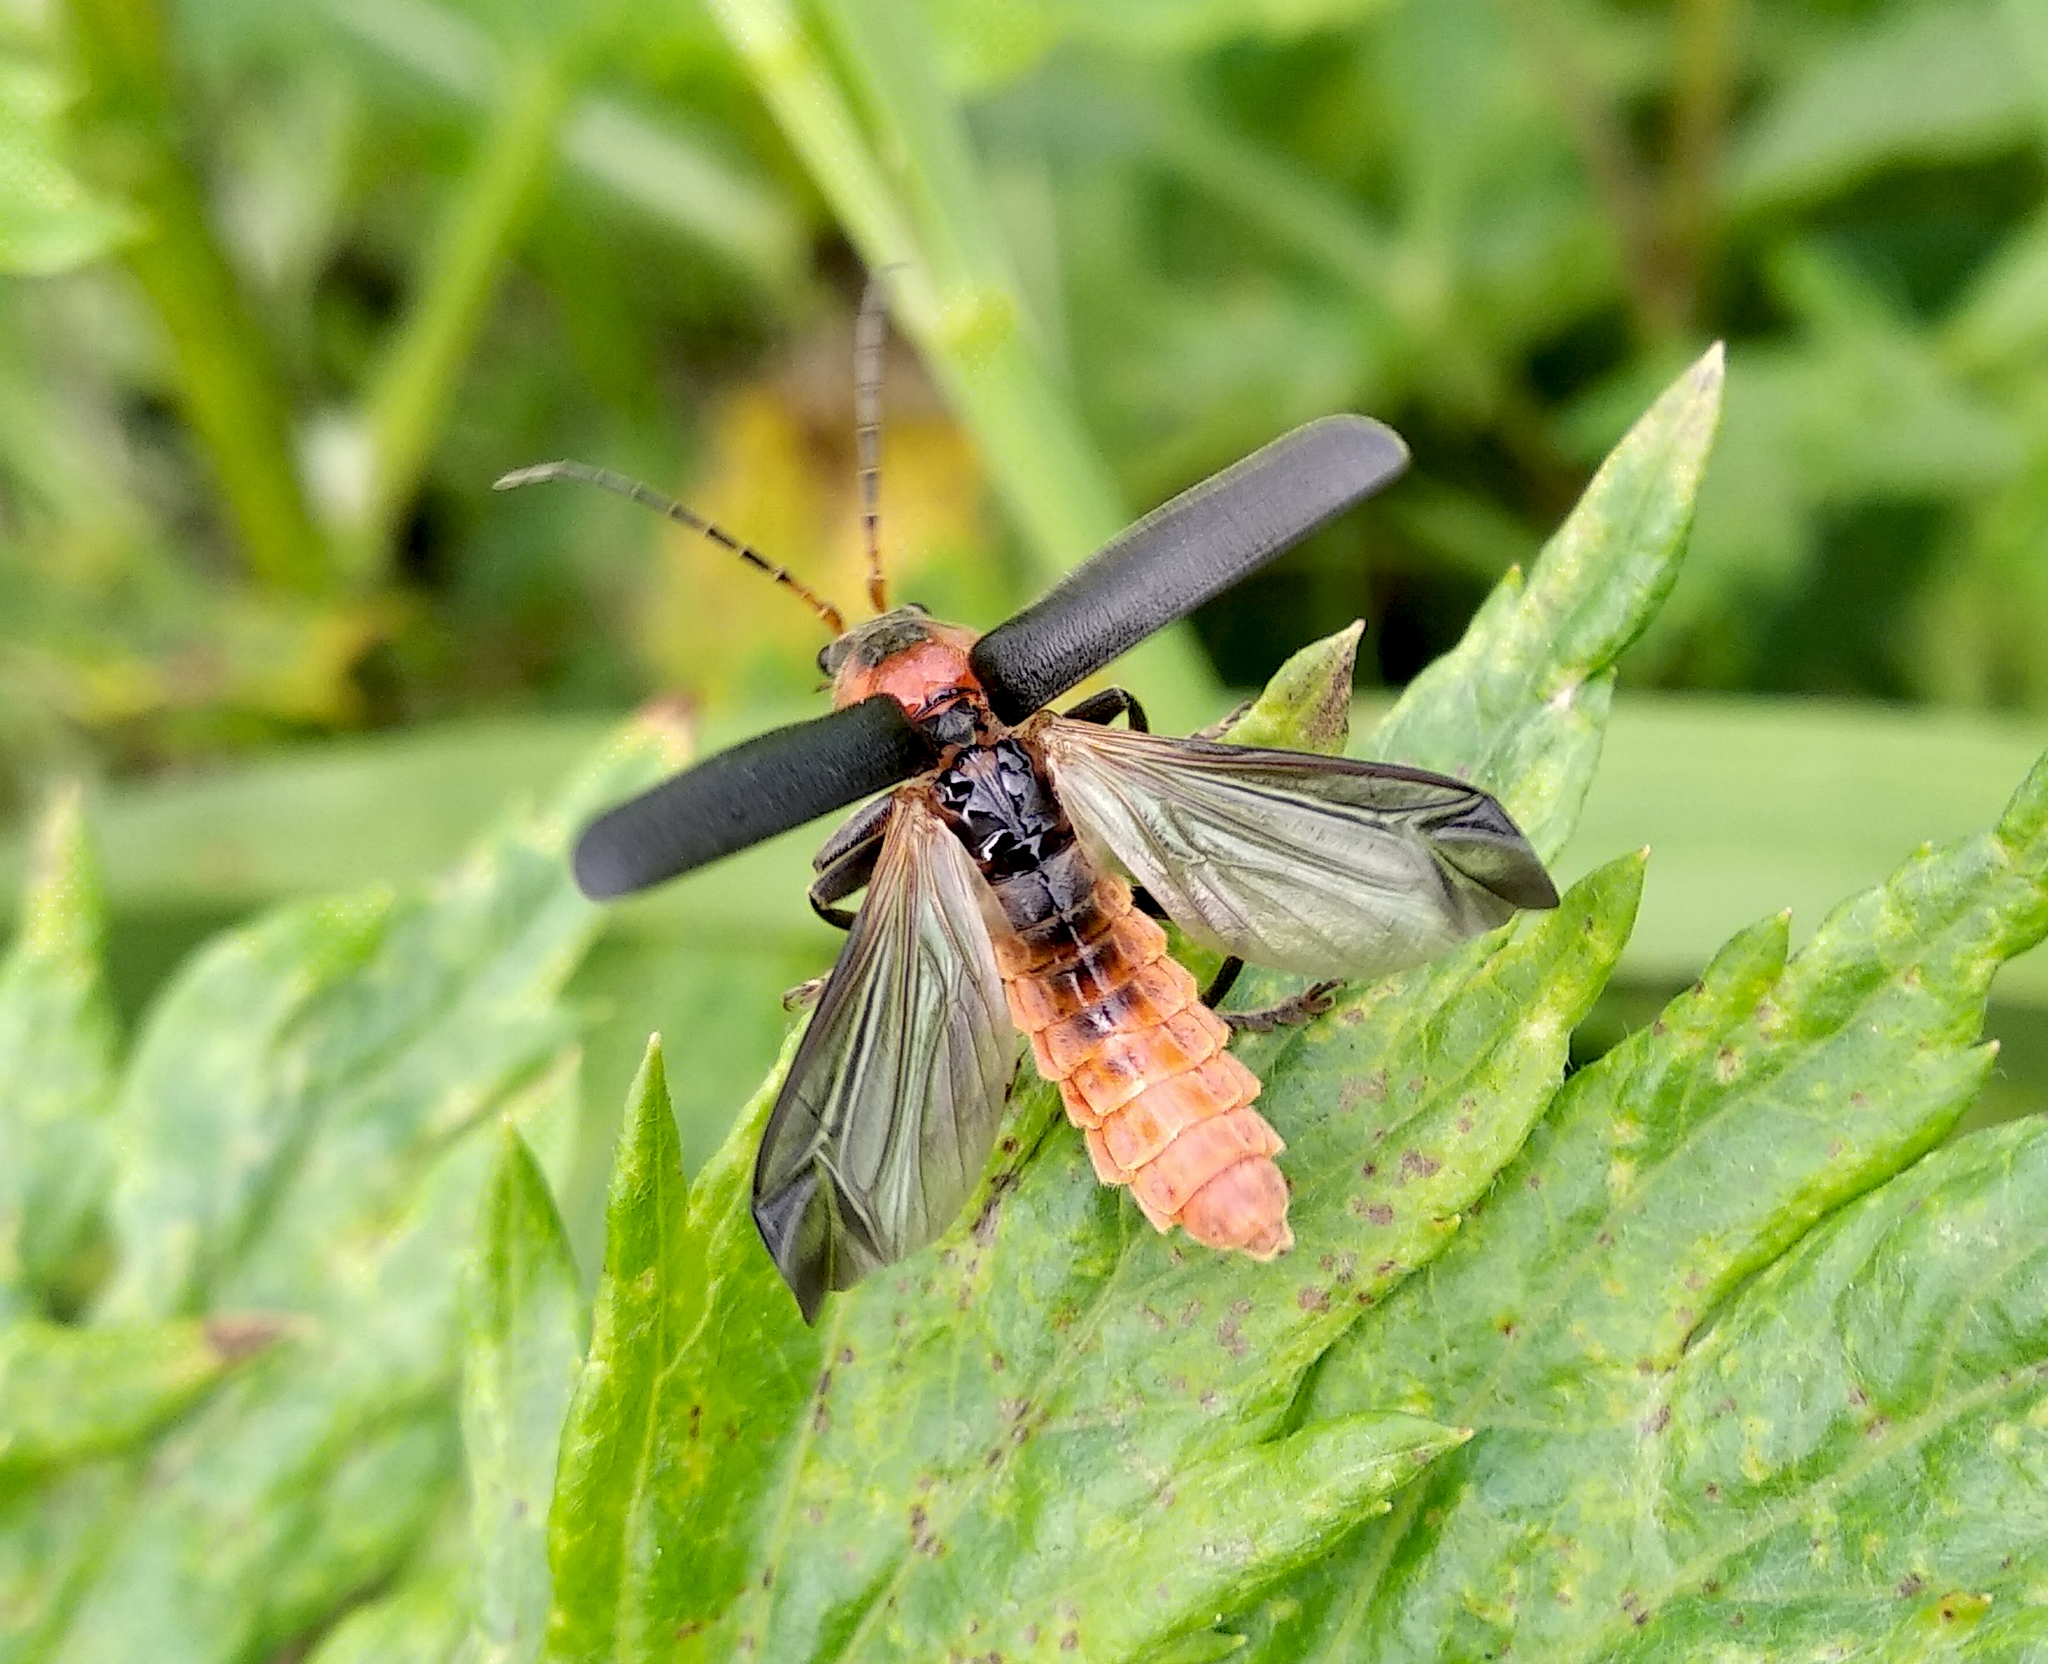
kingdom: Animalia
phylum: Arthropoda
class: Insecta
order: Coleoptera
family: Cantharidae
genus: Cantharis
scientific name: Cantharis fusca
